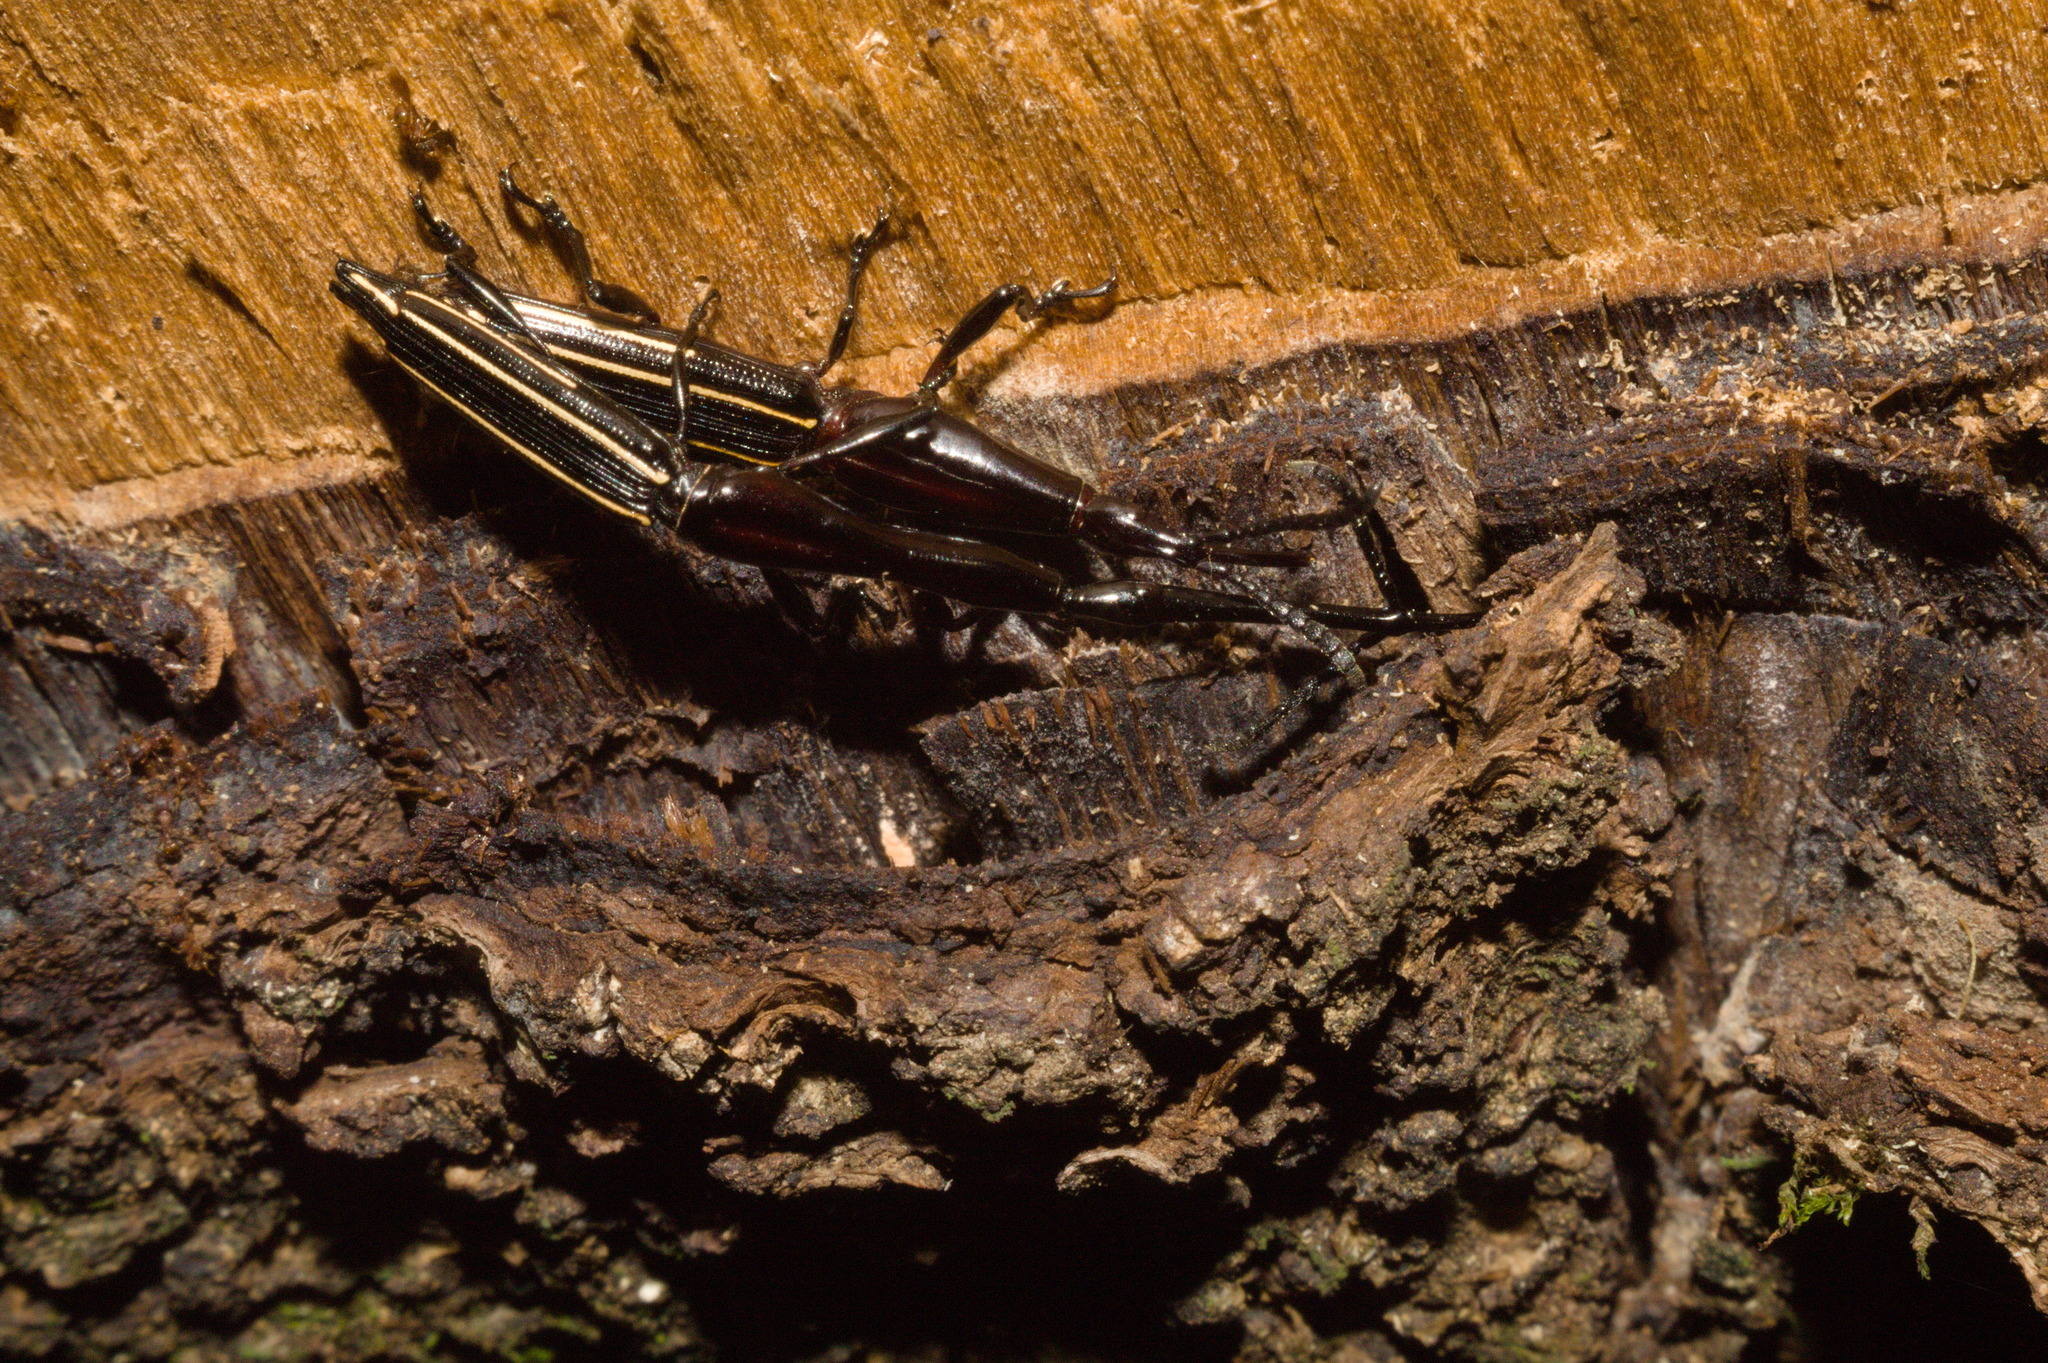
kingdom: Animalia
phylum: Arthropoda
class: Insecta
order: Coleoptera
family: Brentidae
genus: Brentus
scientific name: Brentus anchorago
